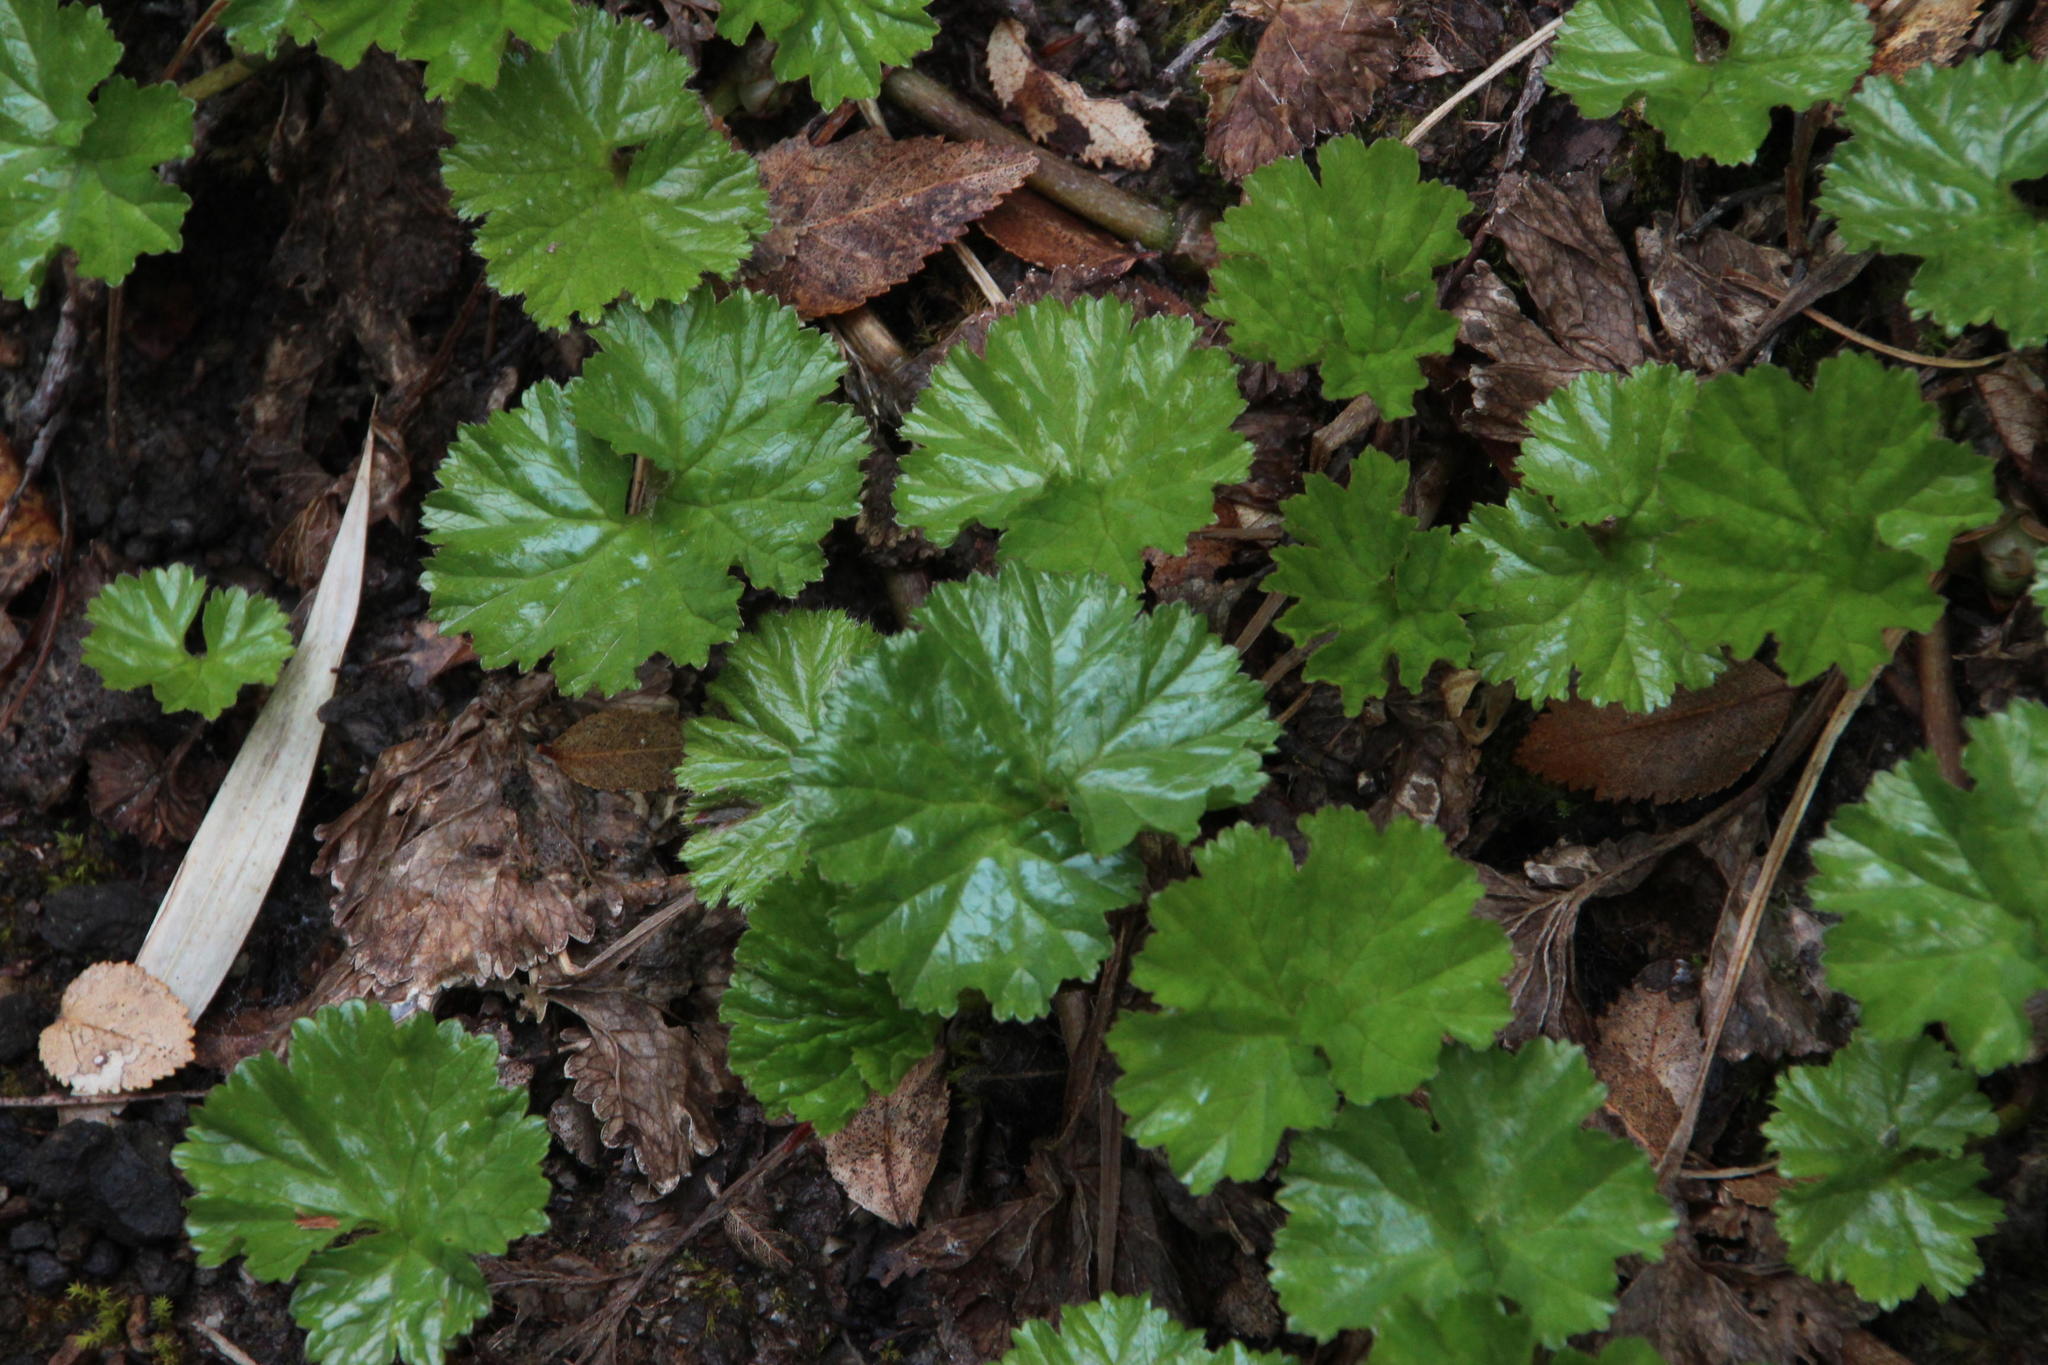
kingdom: Plantae
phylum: Tracheophyta
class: Magnoliopsida
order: Gunnerales
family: Gunneraceae
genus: Gunnera
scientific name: Gunnera magellanica
